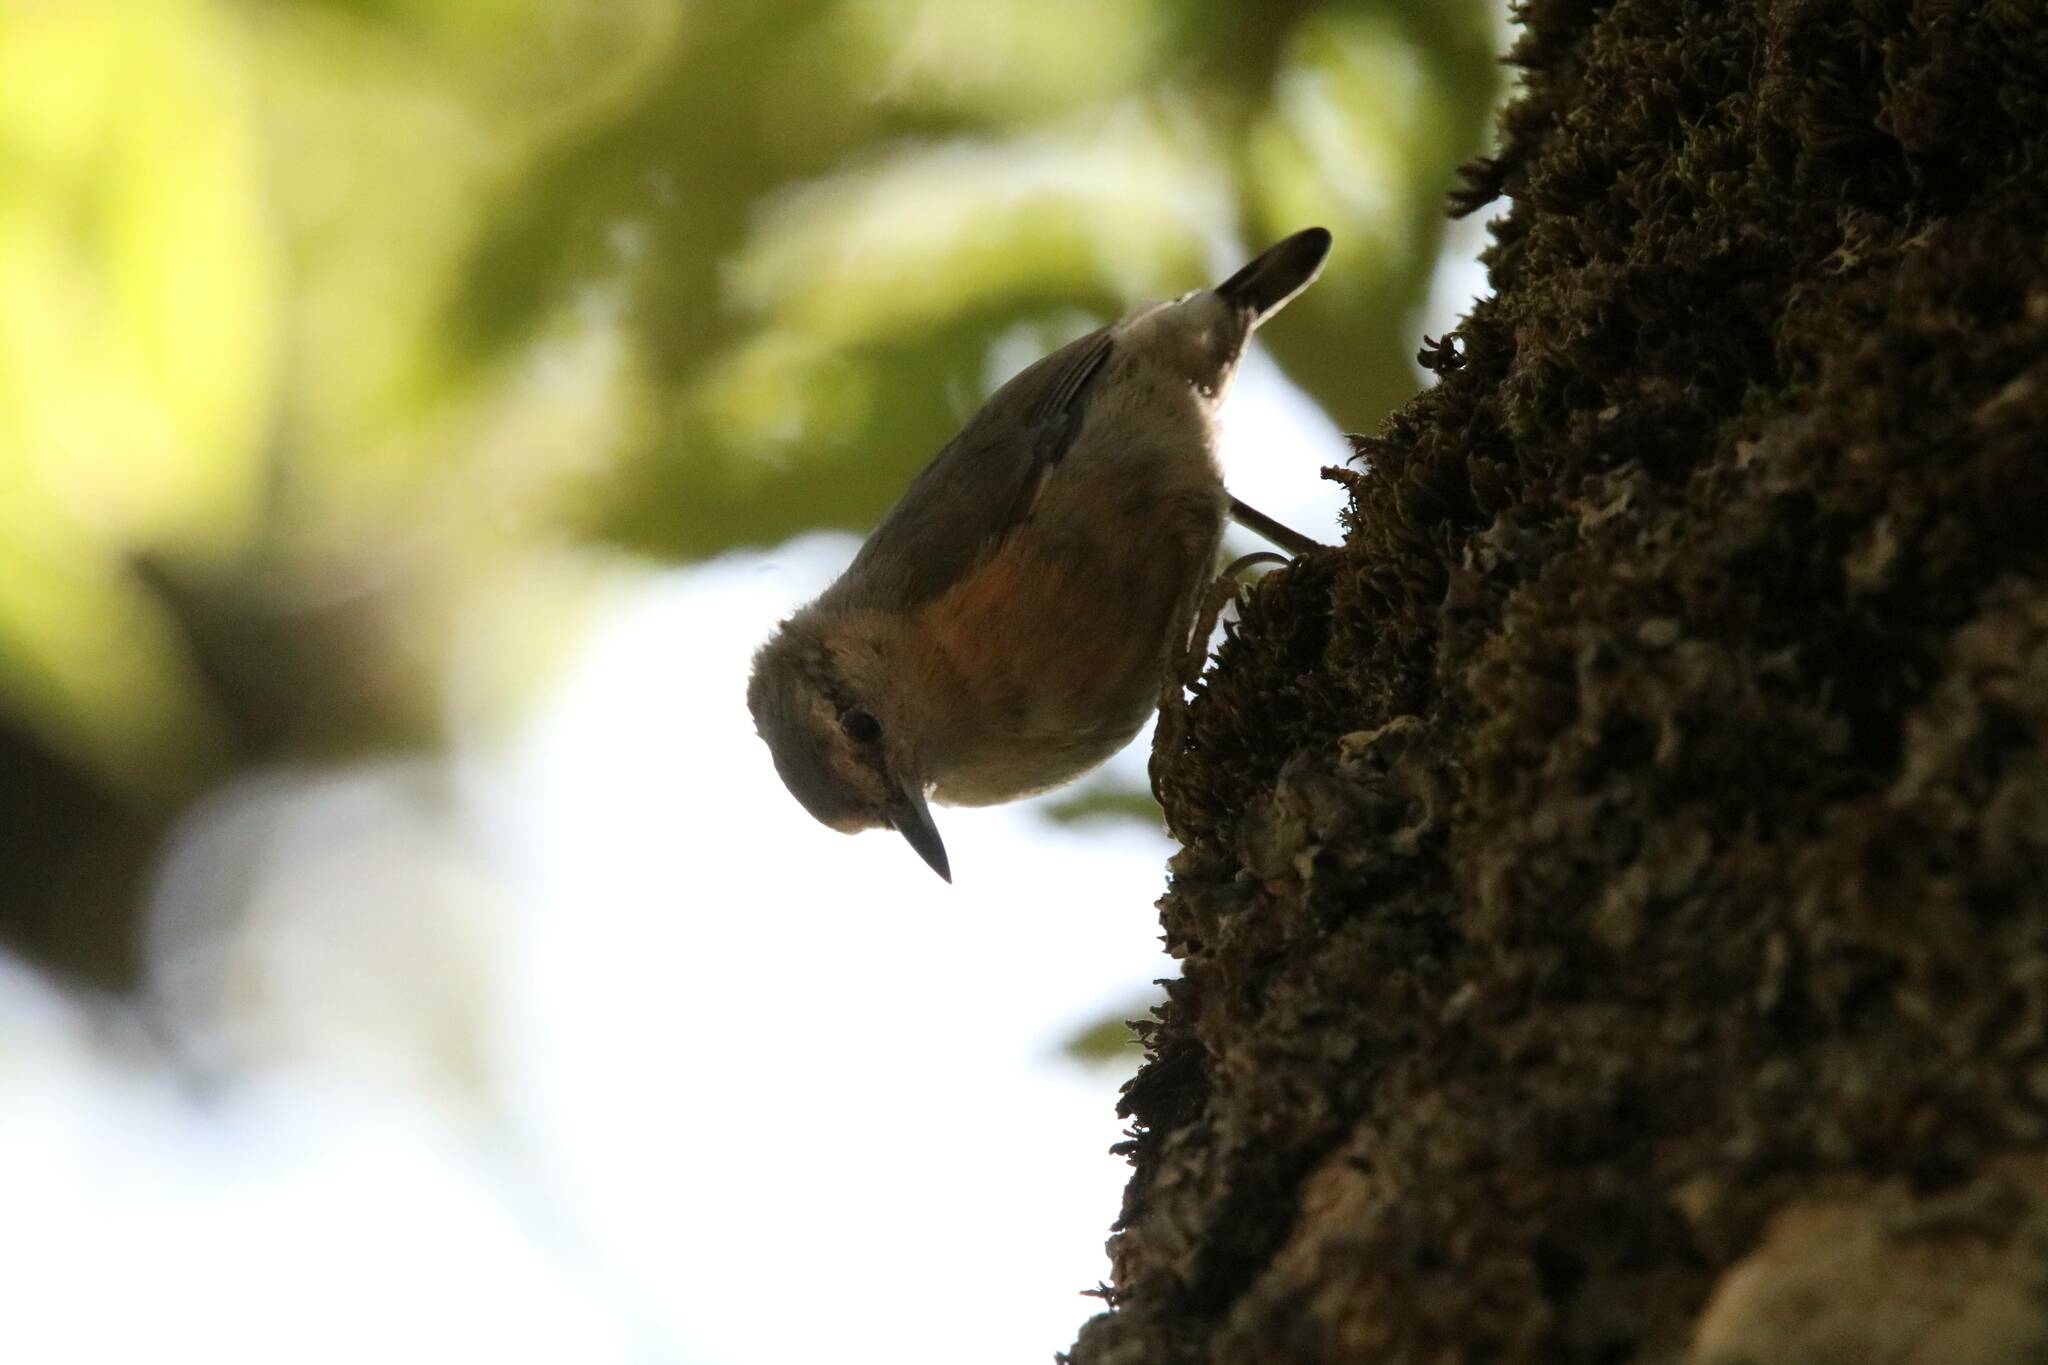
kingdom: Animalia
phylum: Chordata
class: Aves
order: Passeriformes
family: Sittidae
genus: Sitta
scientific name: Sitta ledanti
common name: Algerian nuthatch
